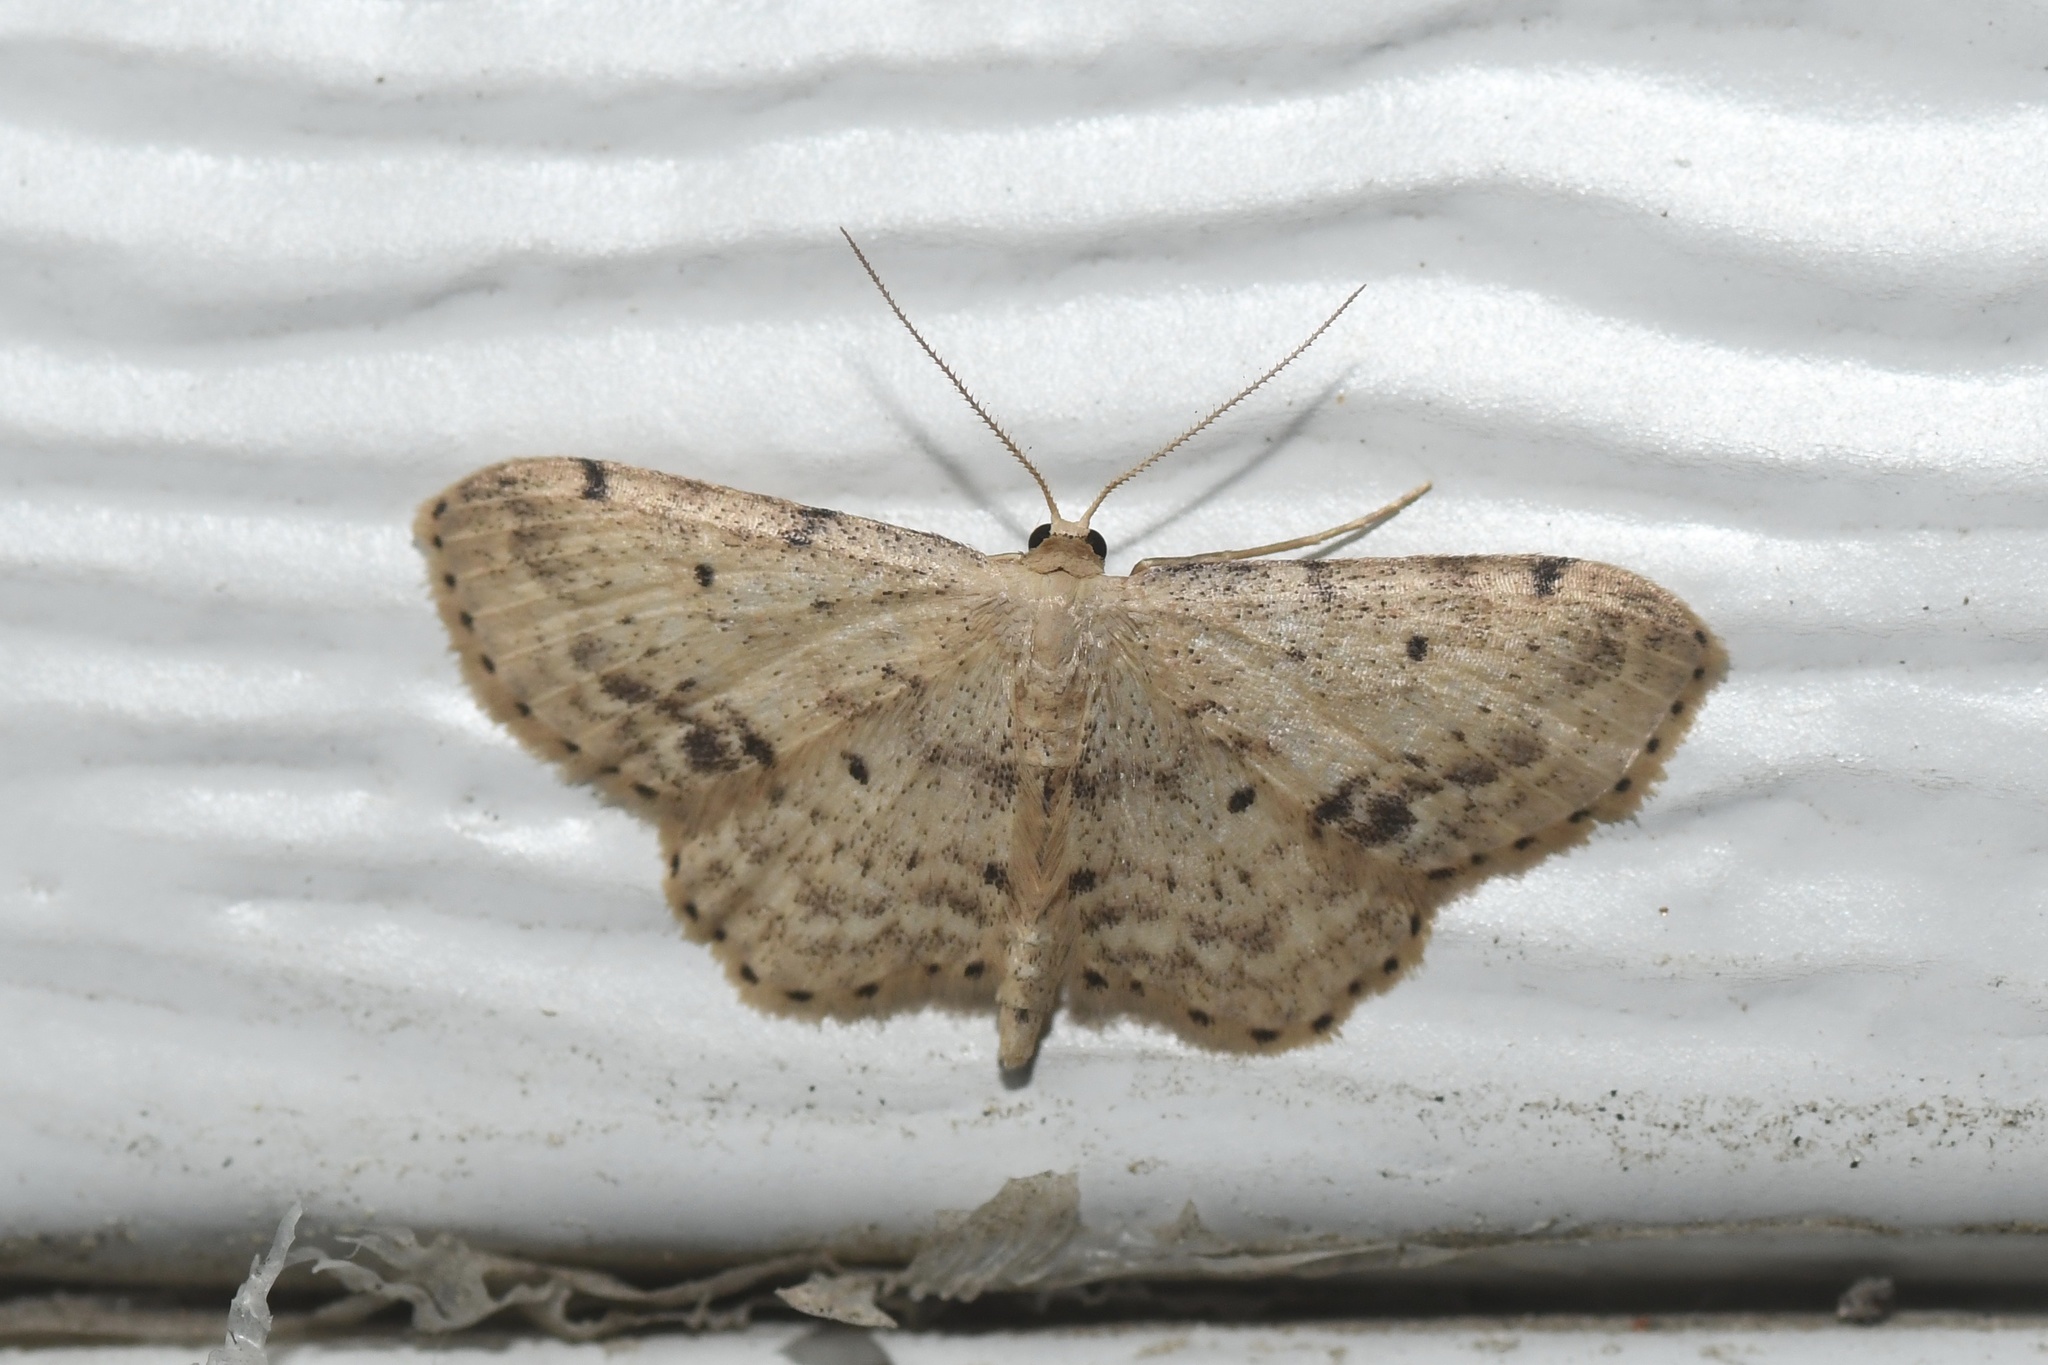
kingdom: Animalia
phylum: Arthropoda
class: Insecta
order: Lepidoptera
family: Geometridae
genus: Idaea
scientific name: Idaea dimidiata
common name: Single-dotted wave
